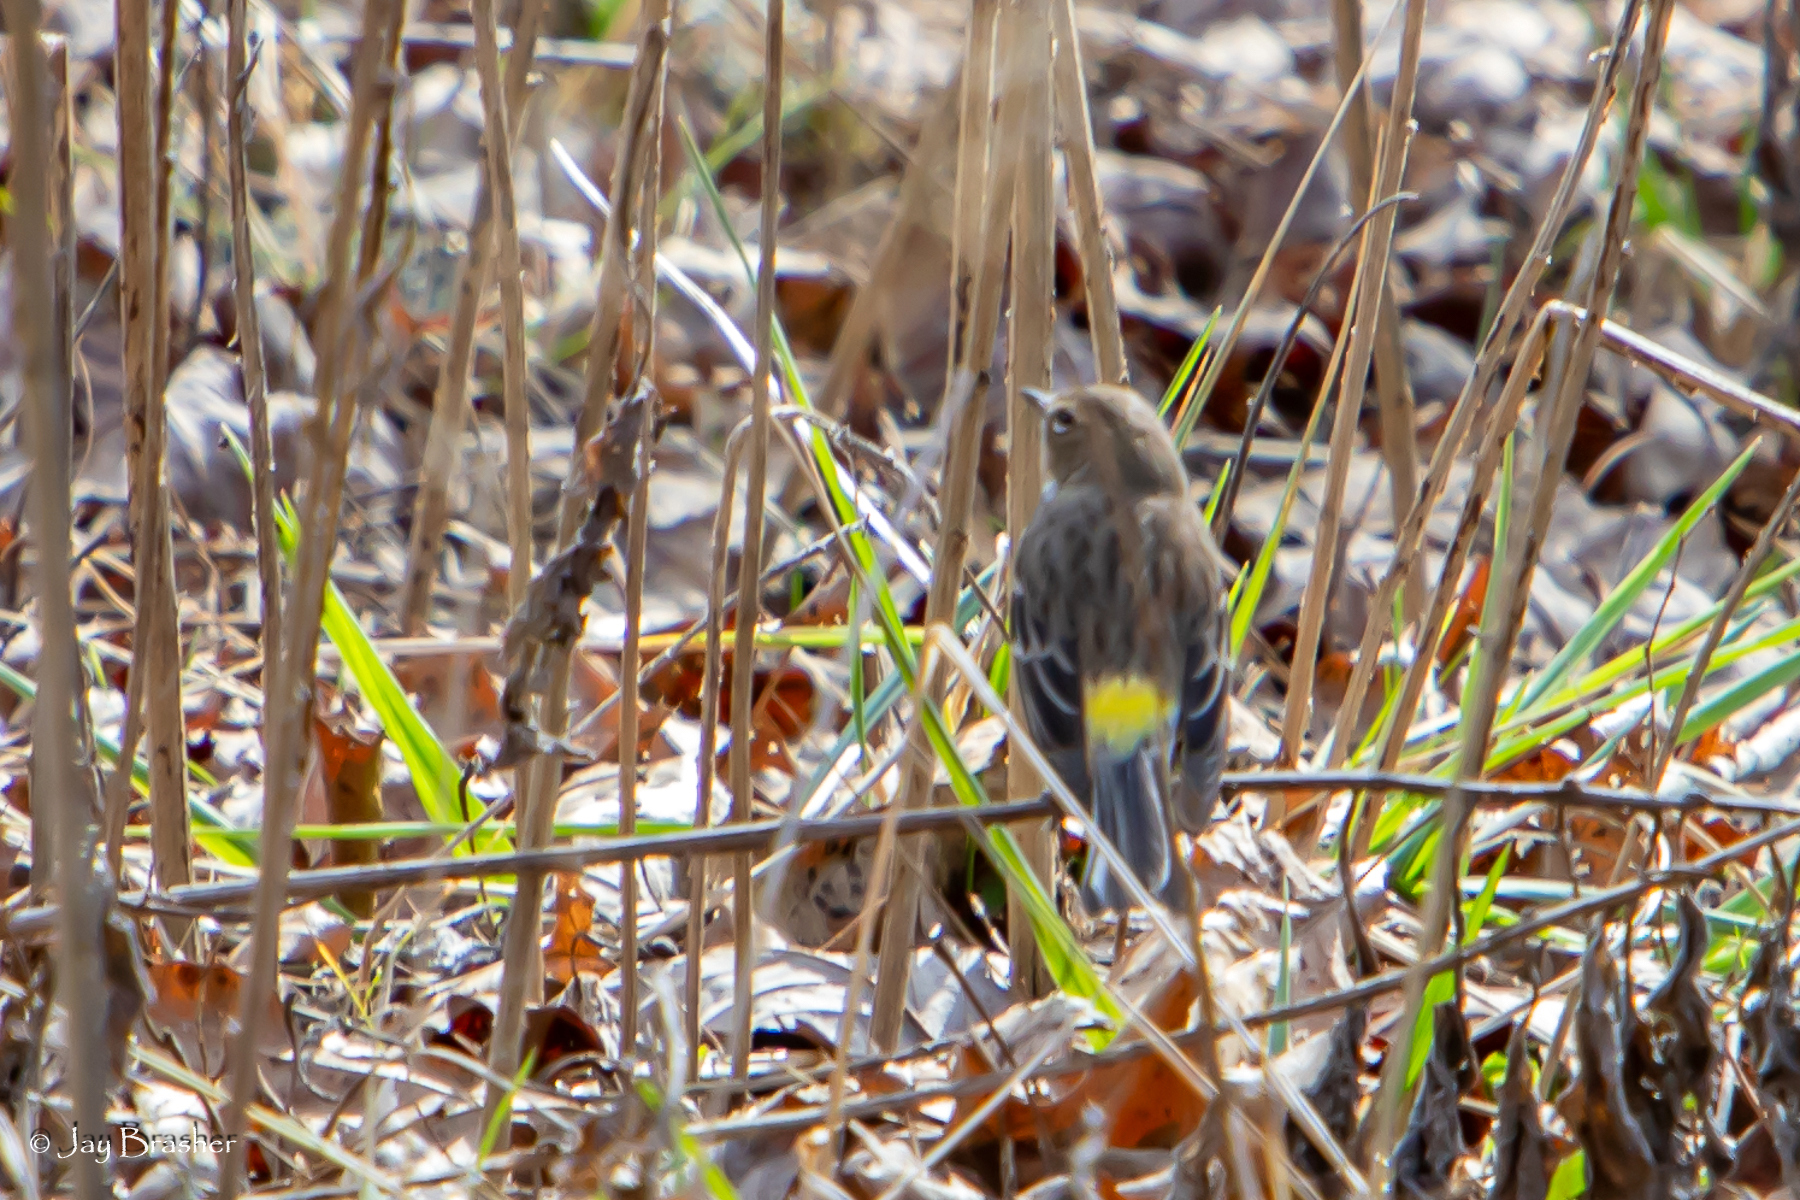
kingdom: Animalia
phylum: Chordata
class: Aves
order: Passeriformes
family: Parulidae
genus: Setophaga
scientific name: Setophaga coronata
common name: Myrtle warbler
